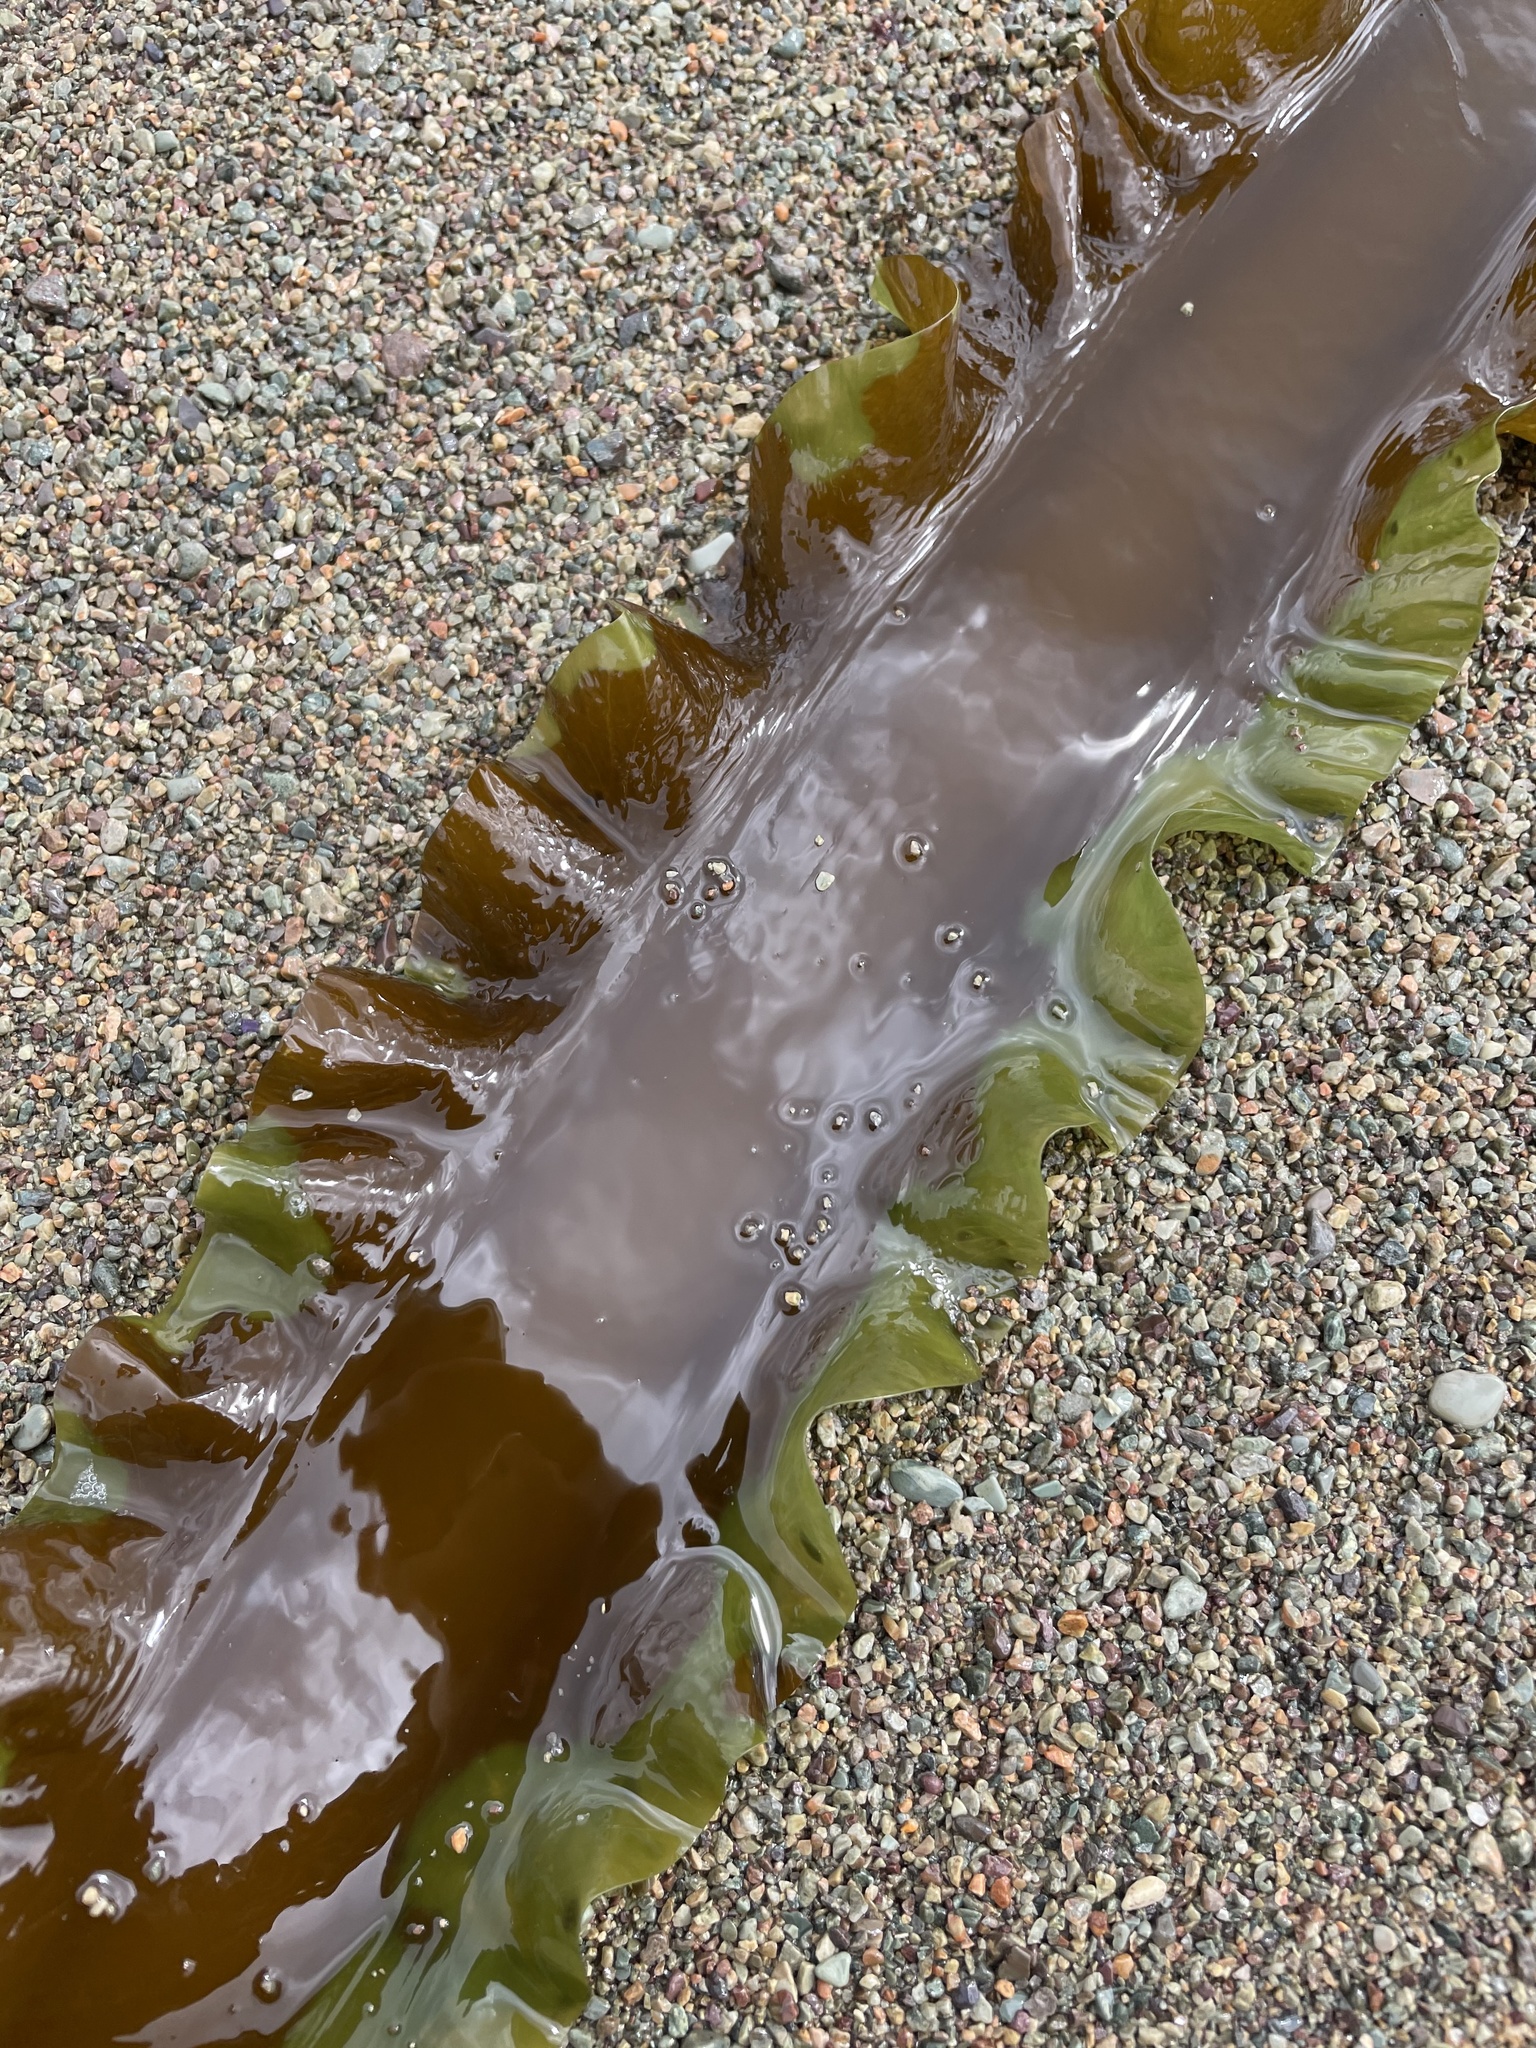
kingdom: Chromista
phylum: Ochrophyta
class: Phaeophyceae
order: Laminariales
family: Laminariaceae
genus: Saccharina
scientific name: Saccharina latissima
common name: Poor man's weather glass
